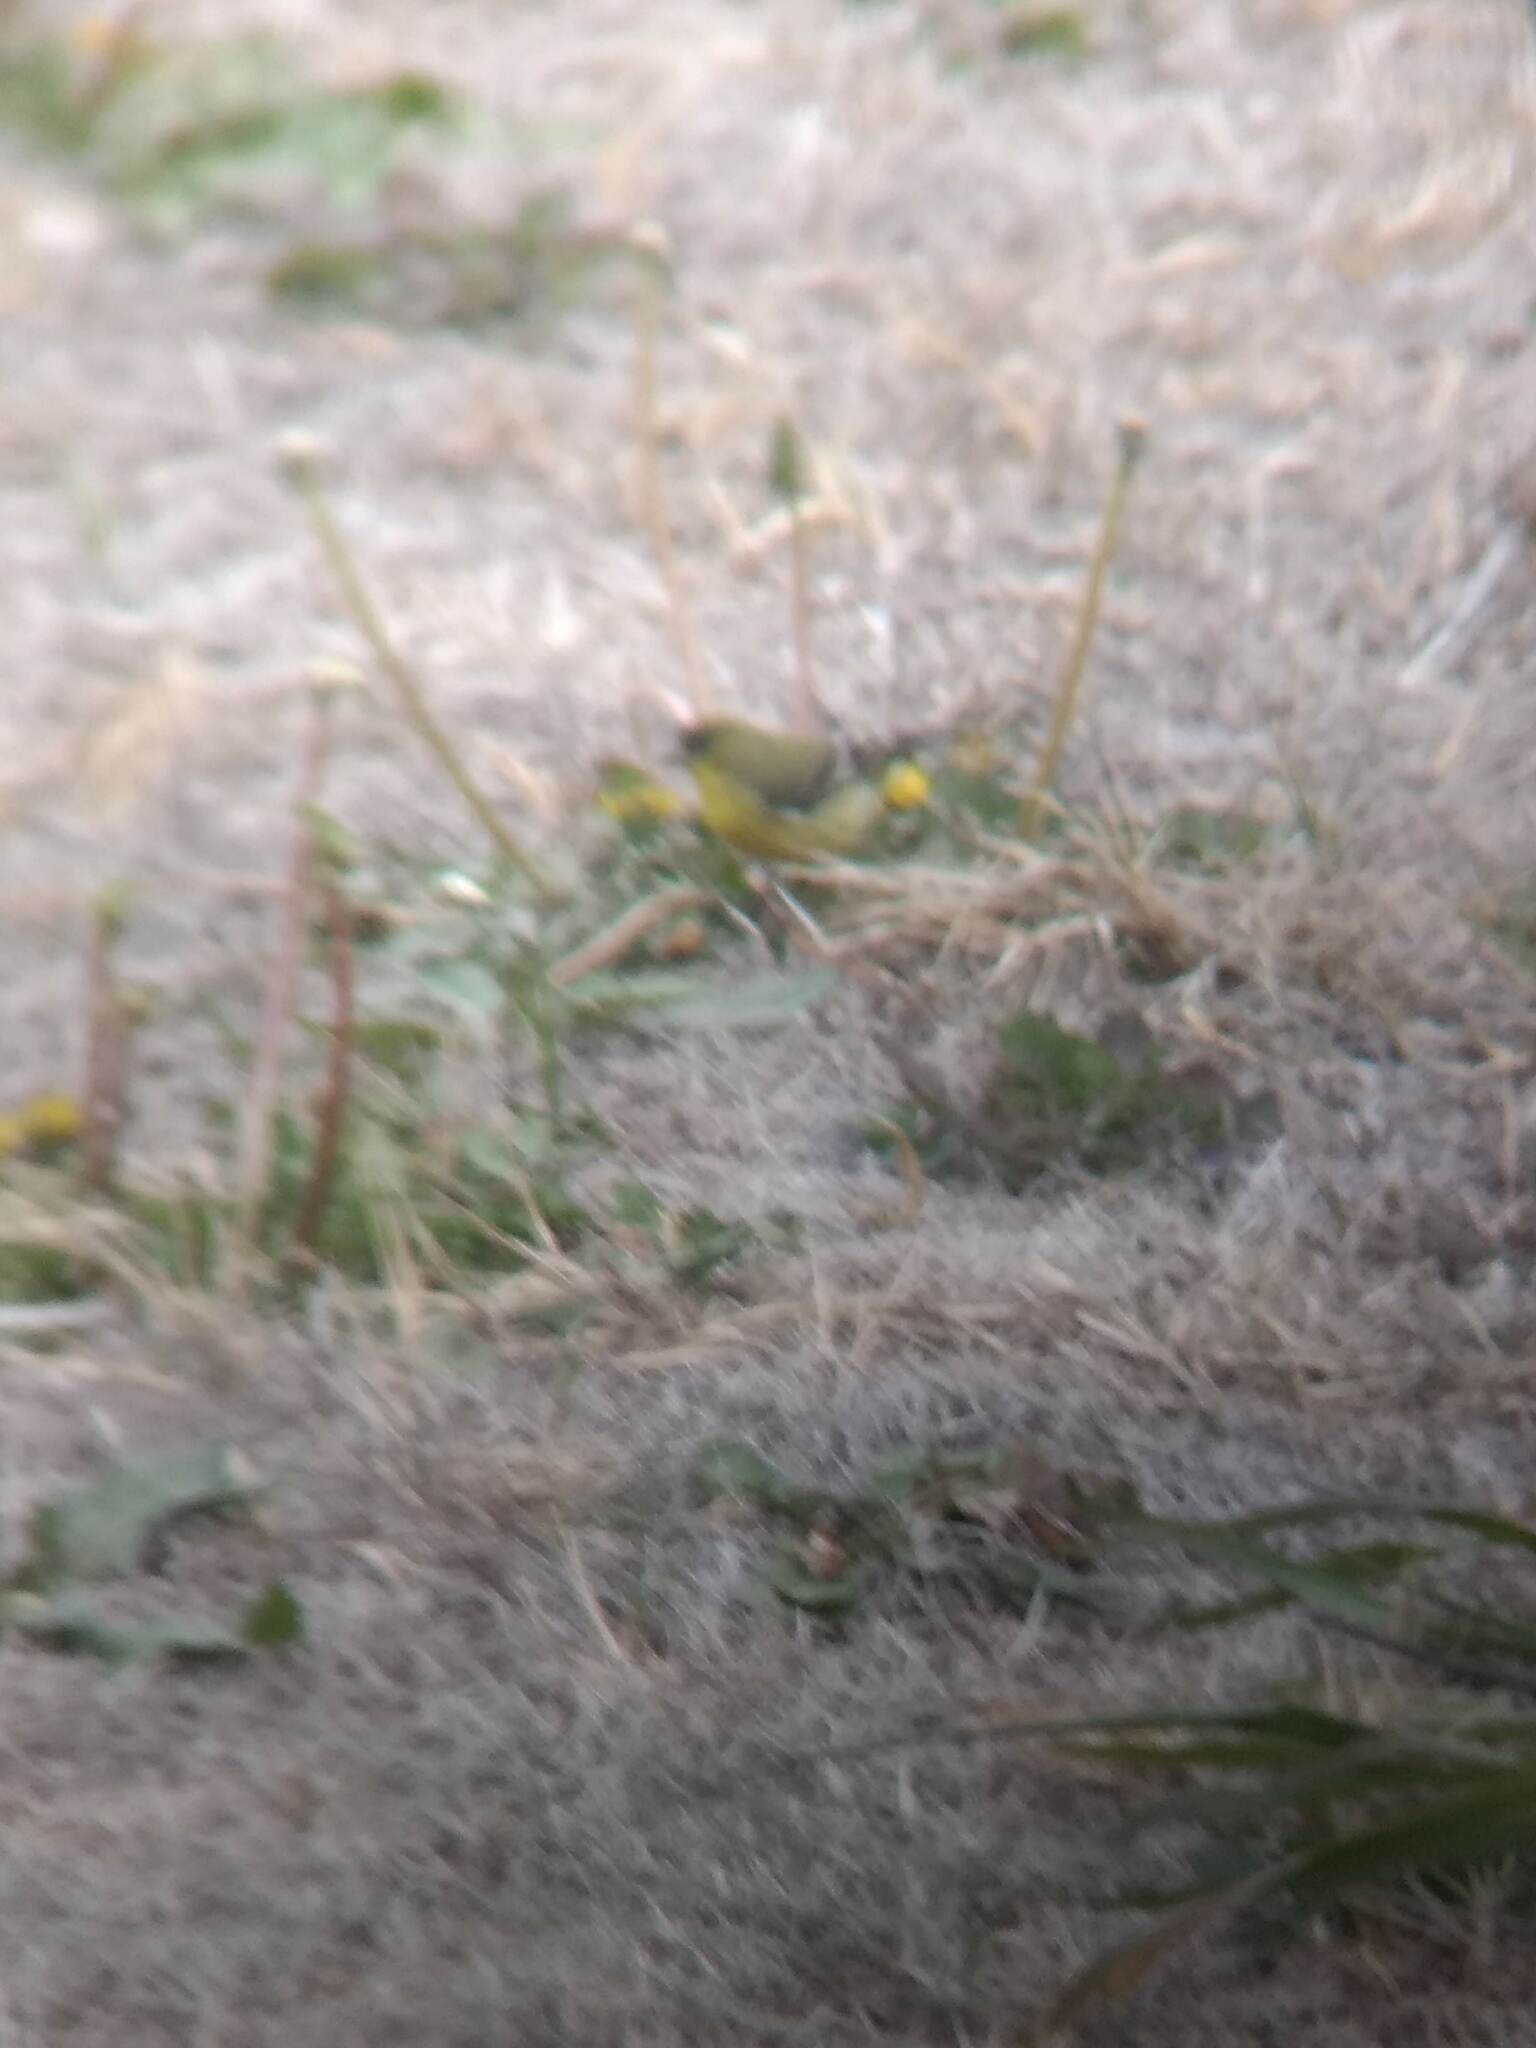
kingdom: Animalia
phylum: Chordata
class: Aves
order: Passeriformes
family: Fringillidae
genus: Spinus
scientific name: Spinus psaltria
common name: Lesser goldfinch
